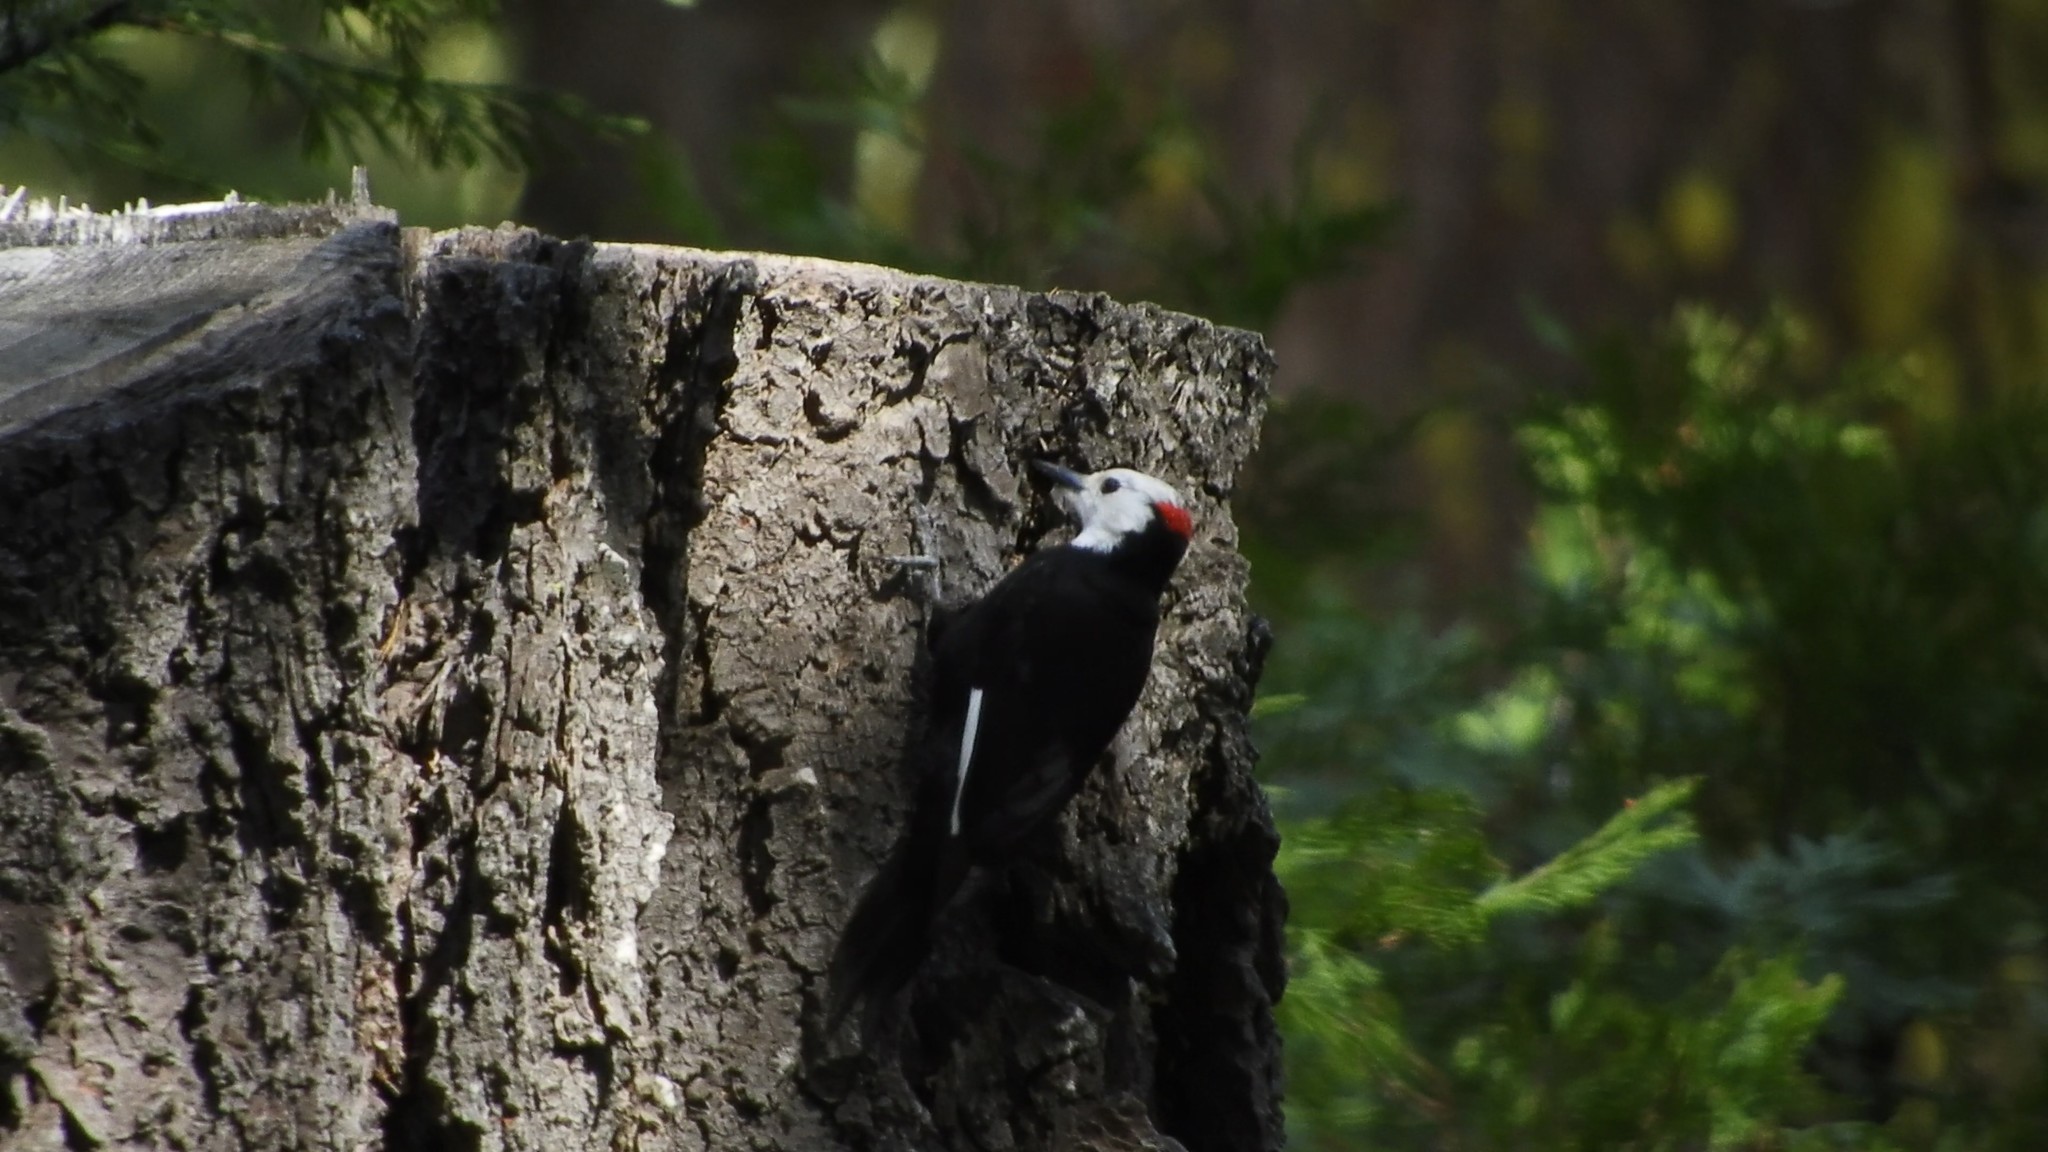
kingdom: Animalia
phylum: Chordata
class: Aves
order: Piciformes
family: Picidae
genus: Leuconotopicus
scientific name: Leuconotopicus albolarvatus
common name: White-headed woodpecker
